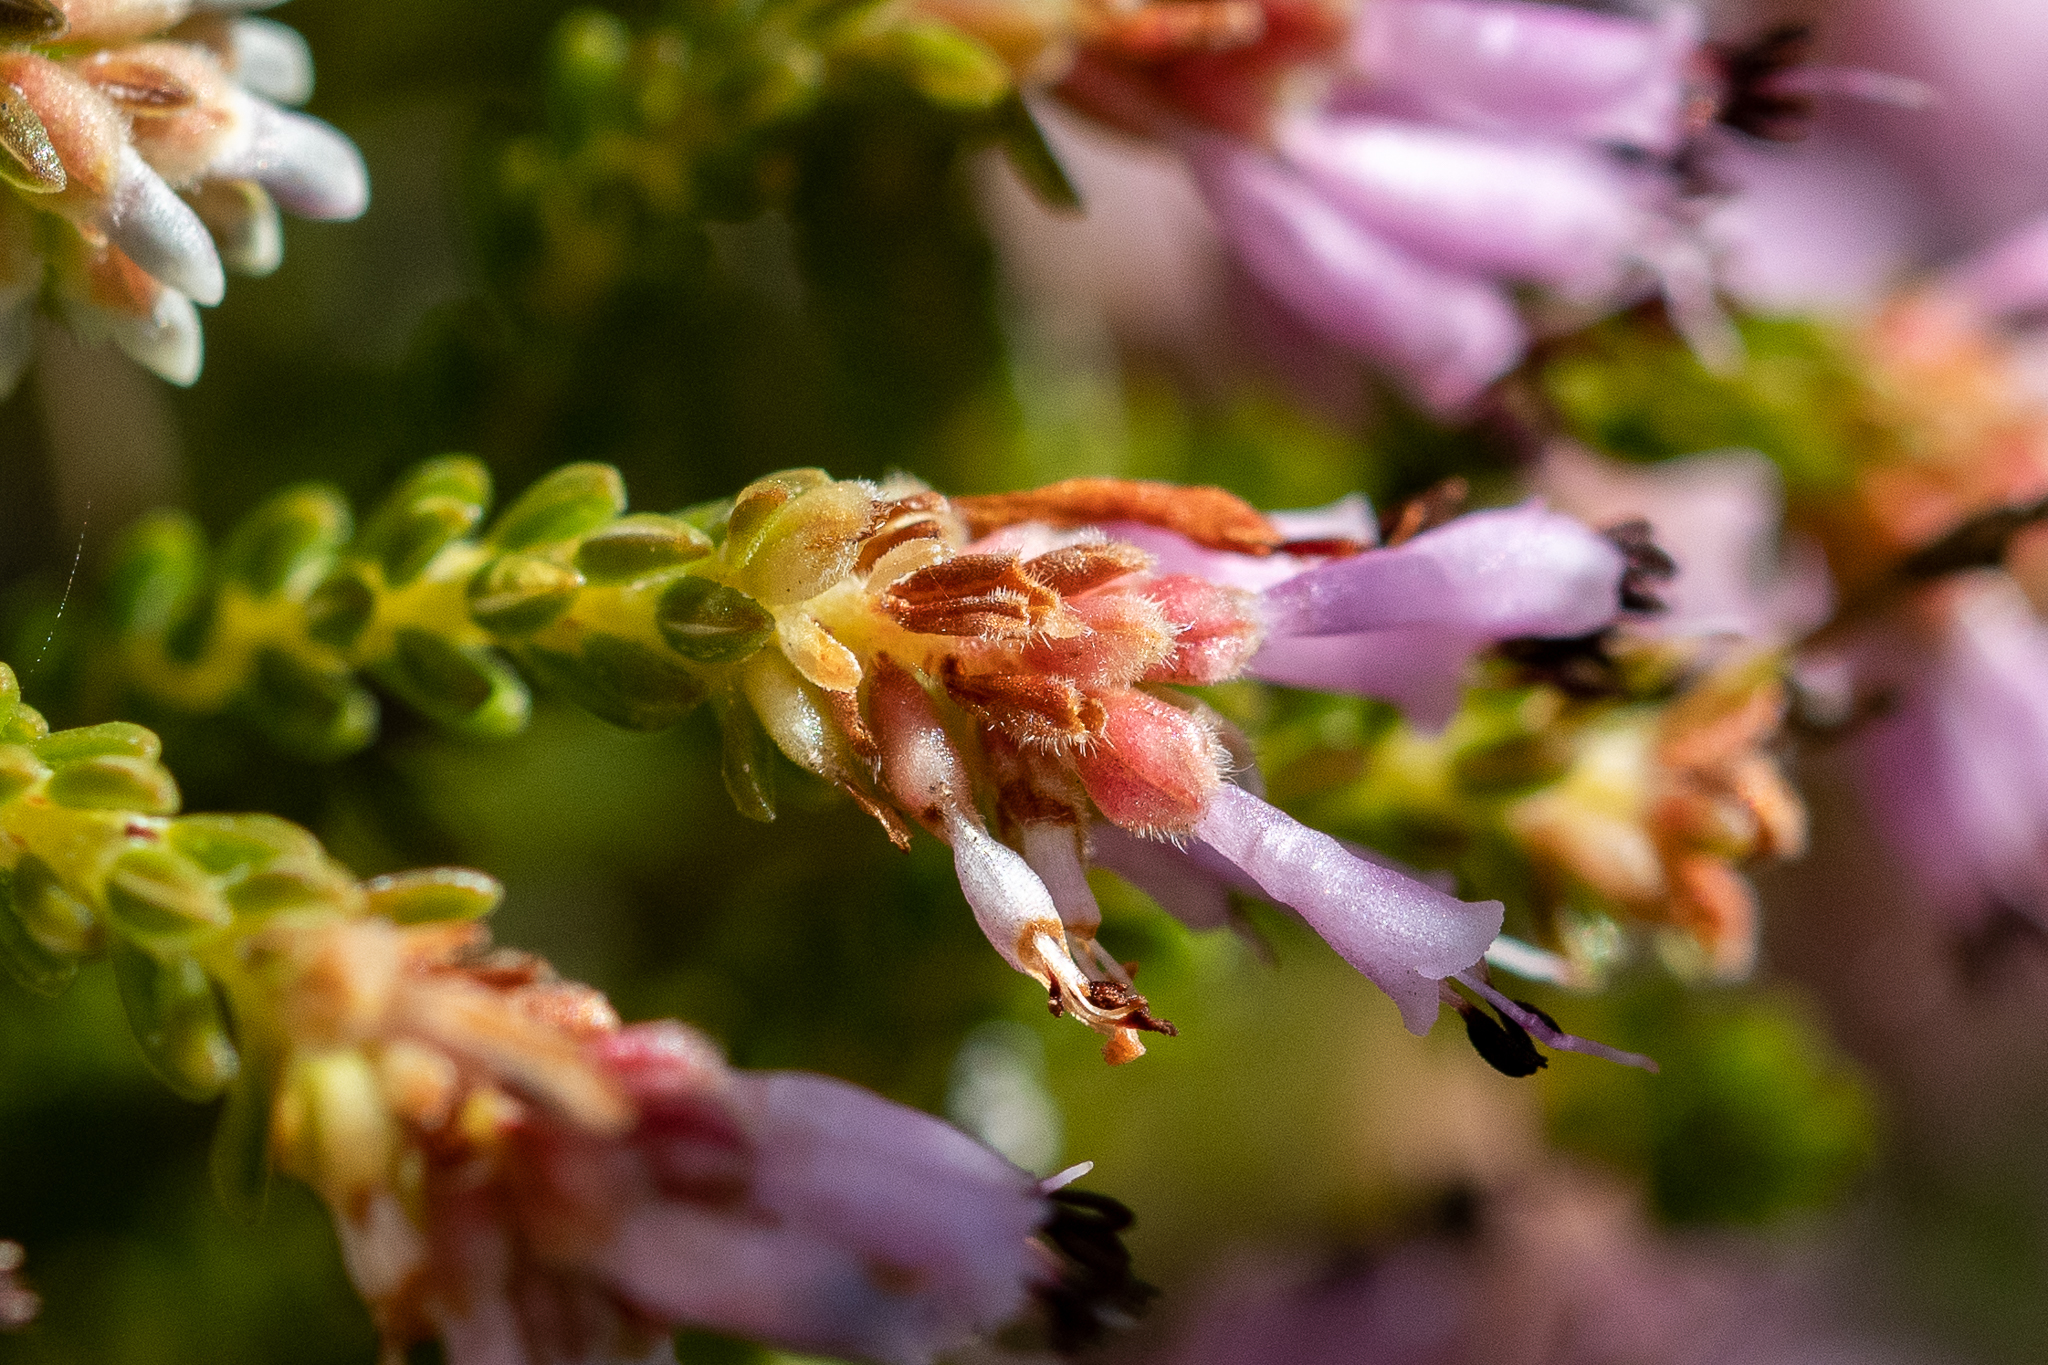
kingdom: Plantae
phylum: Tracheophyta
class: Magnoliopsida
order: Ericales
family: Ericaceae
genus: Erica
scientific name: Erica labialis
